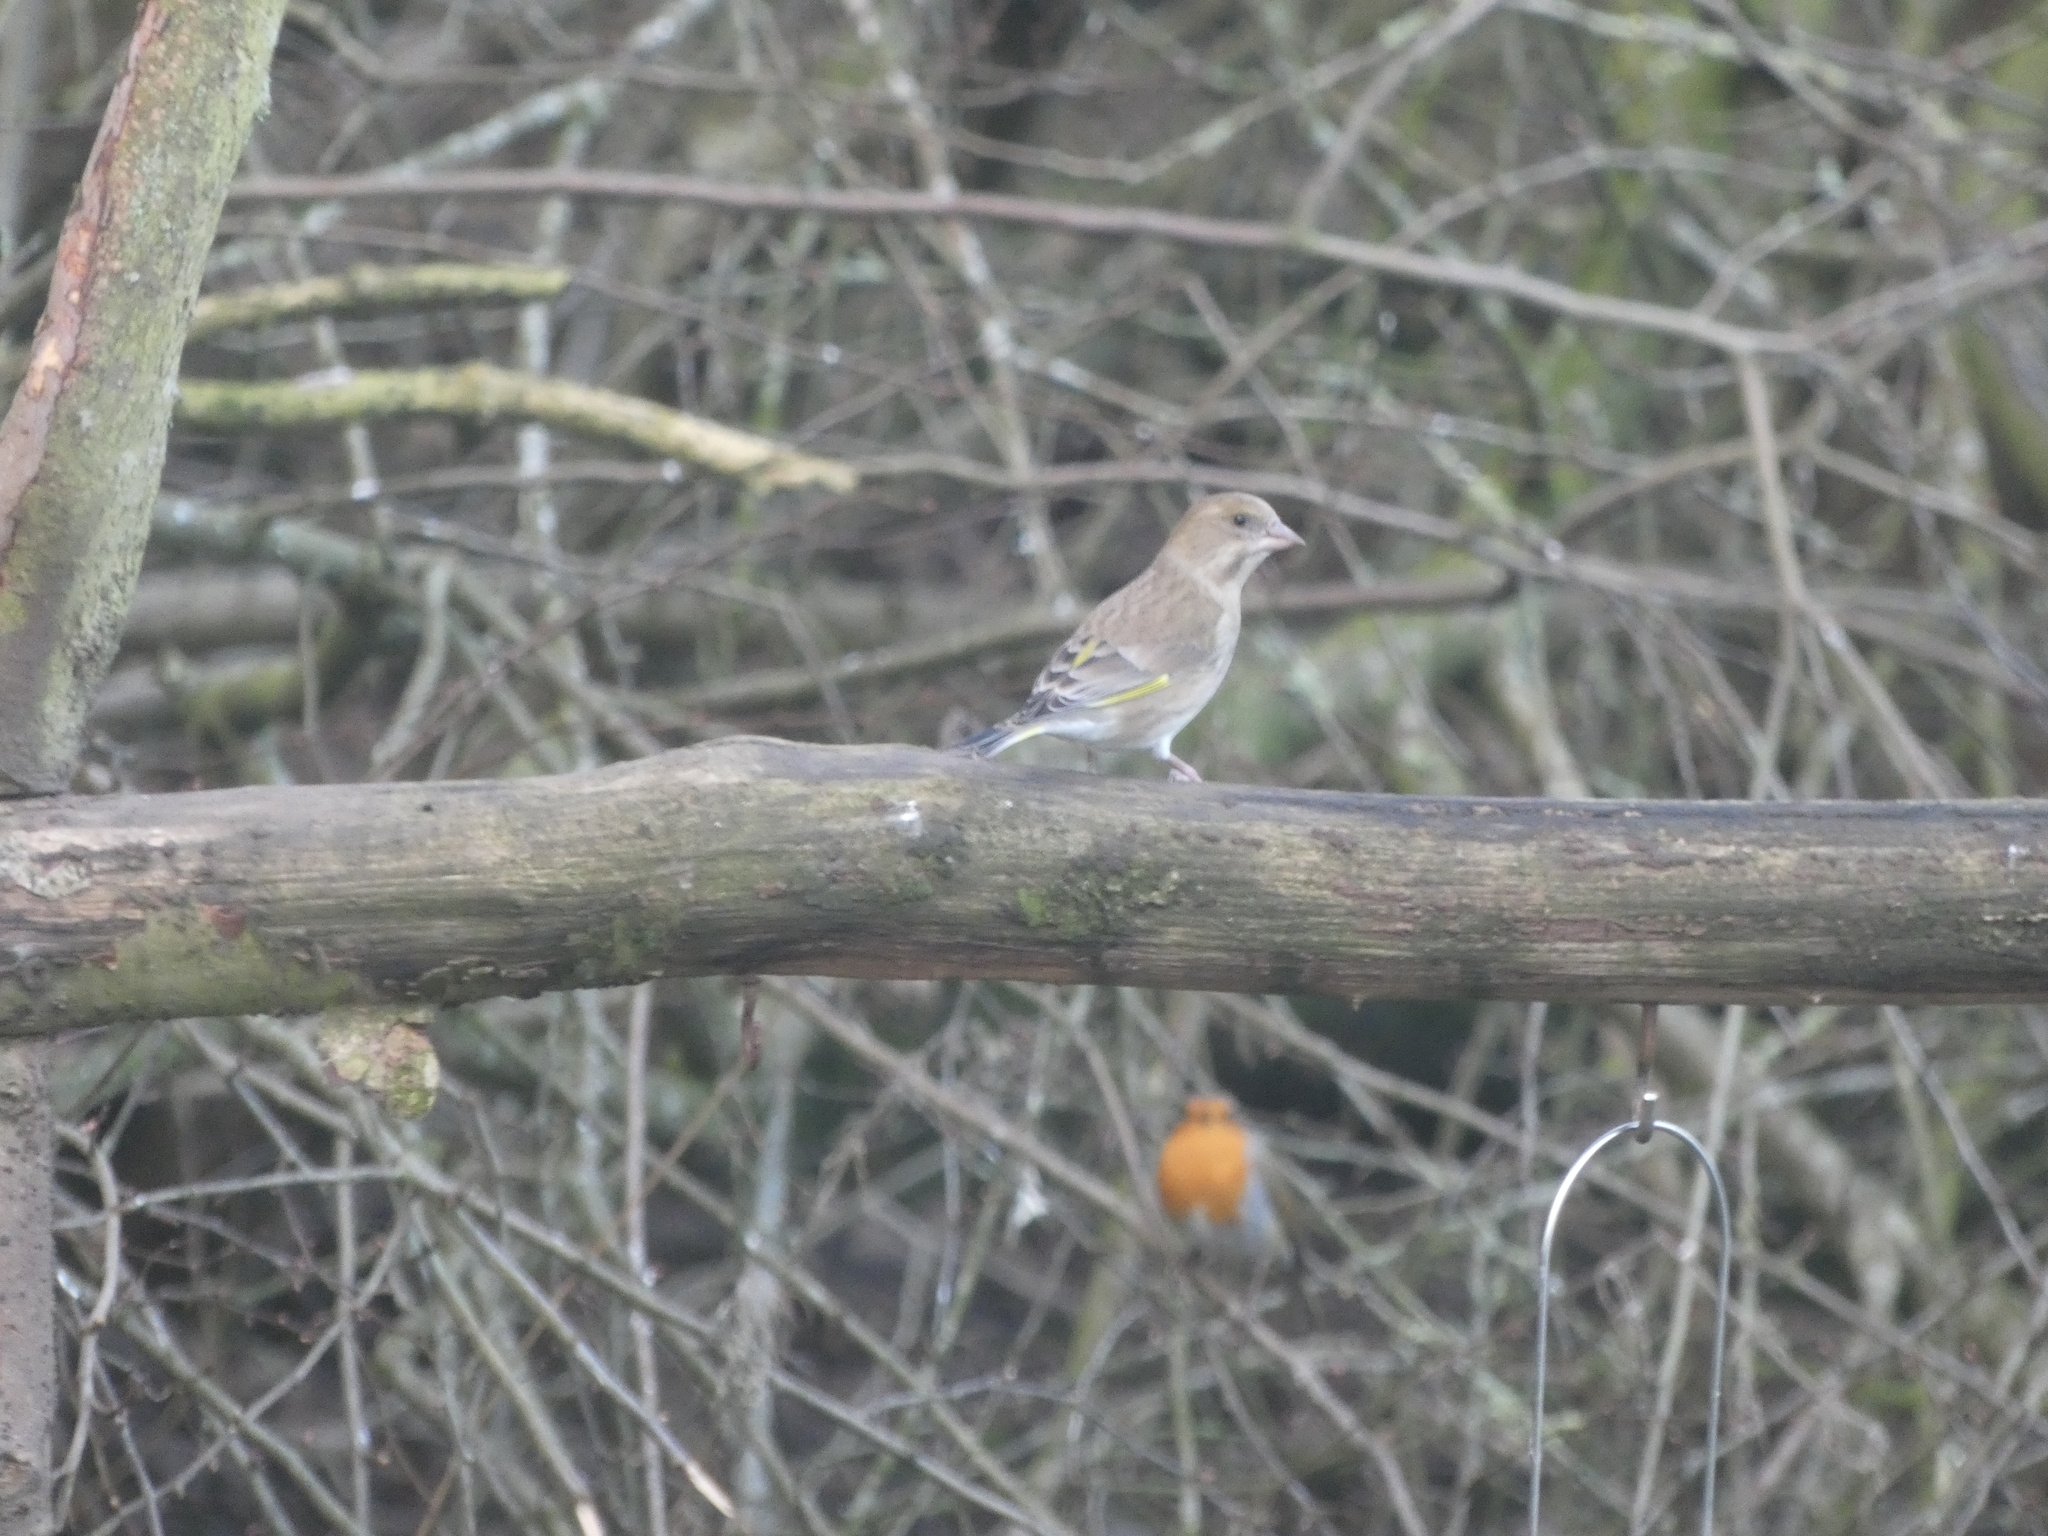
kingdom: Plantae
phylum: Tracheophyta
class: Liliopsida
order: Poales
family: Poaceae
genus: Chloris
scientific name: Chloris chloris
